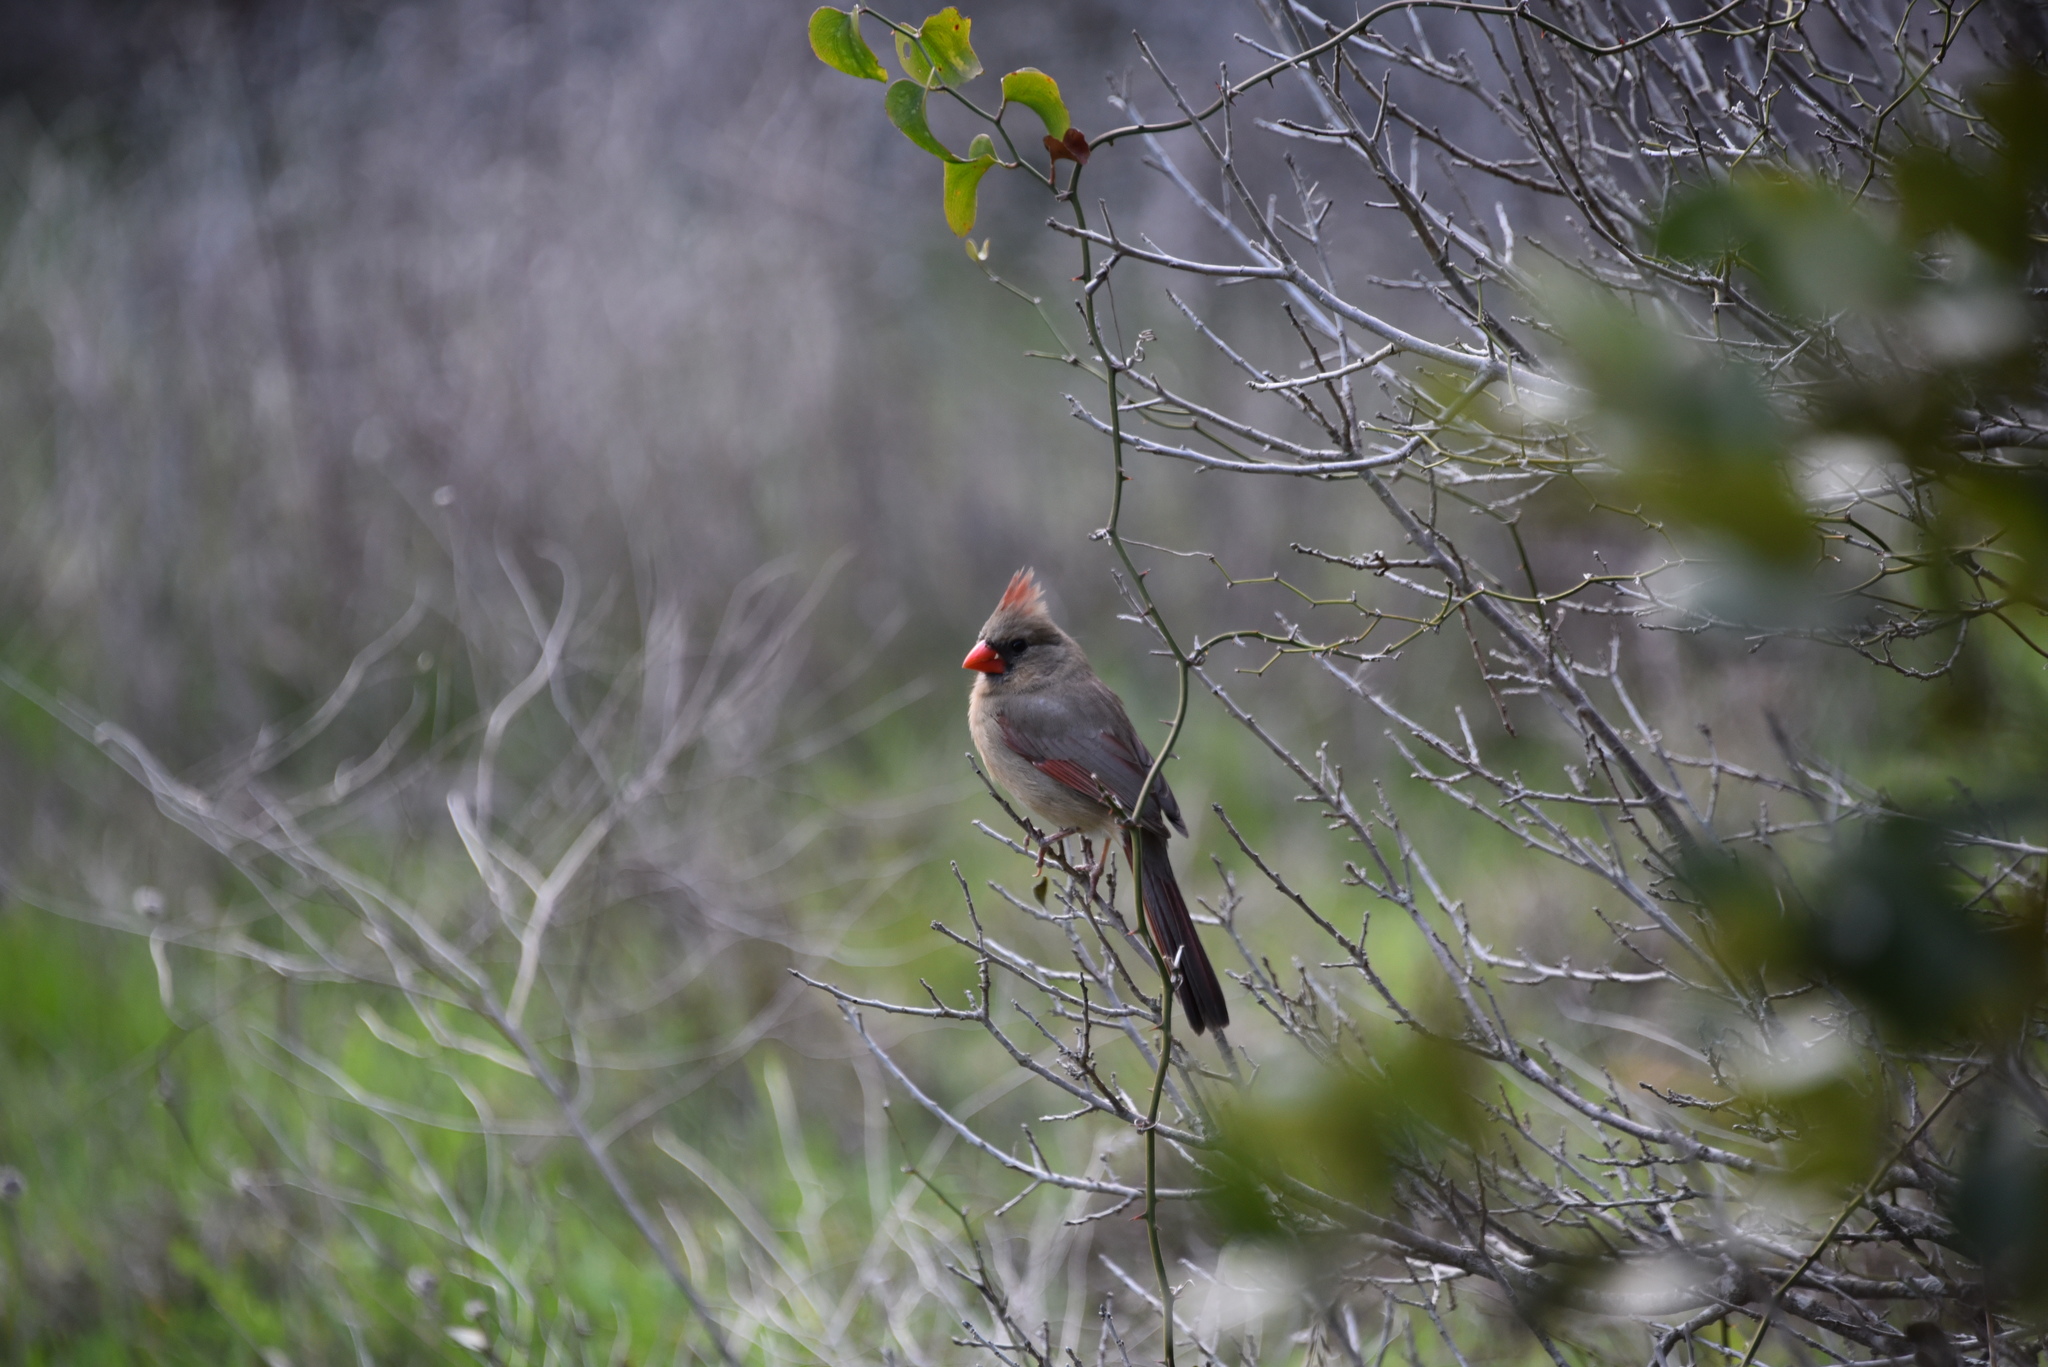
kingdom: Animalia
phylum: Chordata
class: Aves
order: Passeriformes
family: Cardinalidae
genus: Cardinalis
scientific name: Cardinalis cardinalis
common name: Northern cardinal
